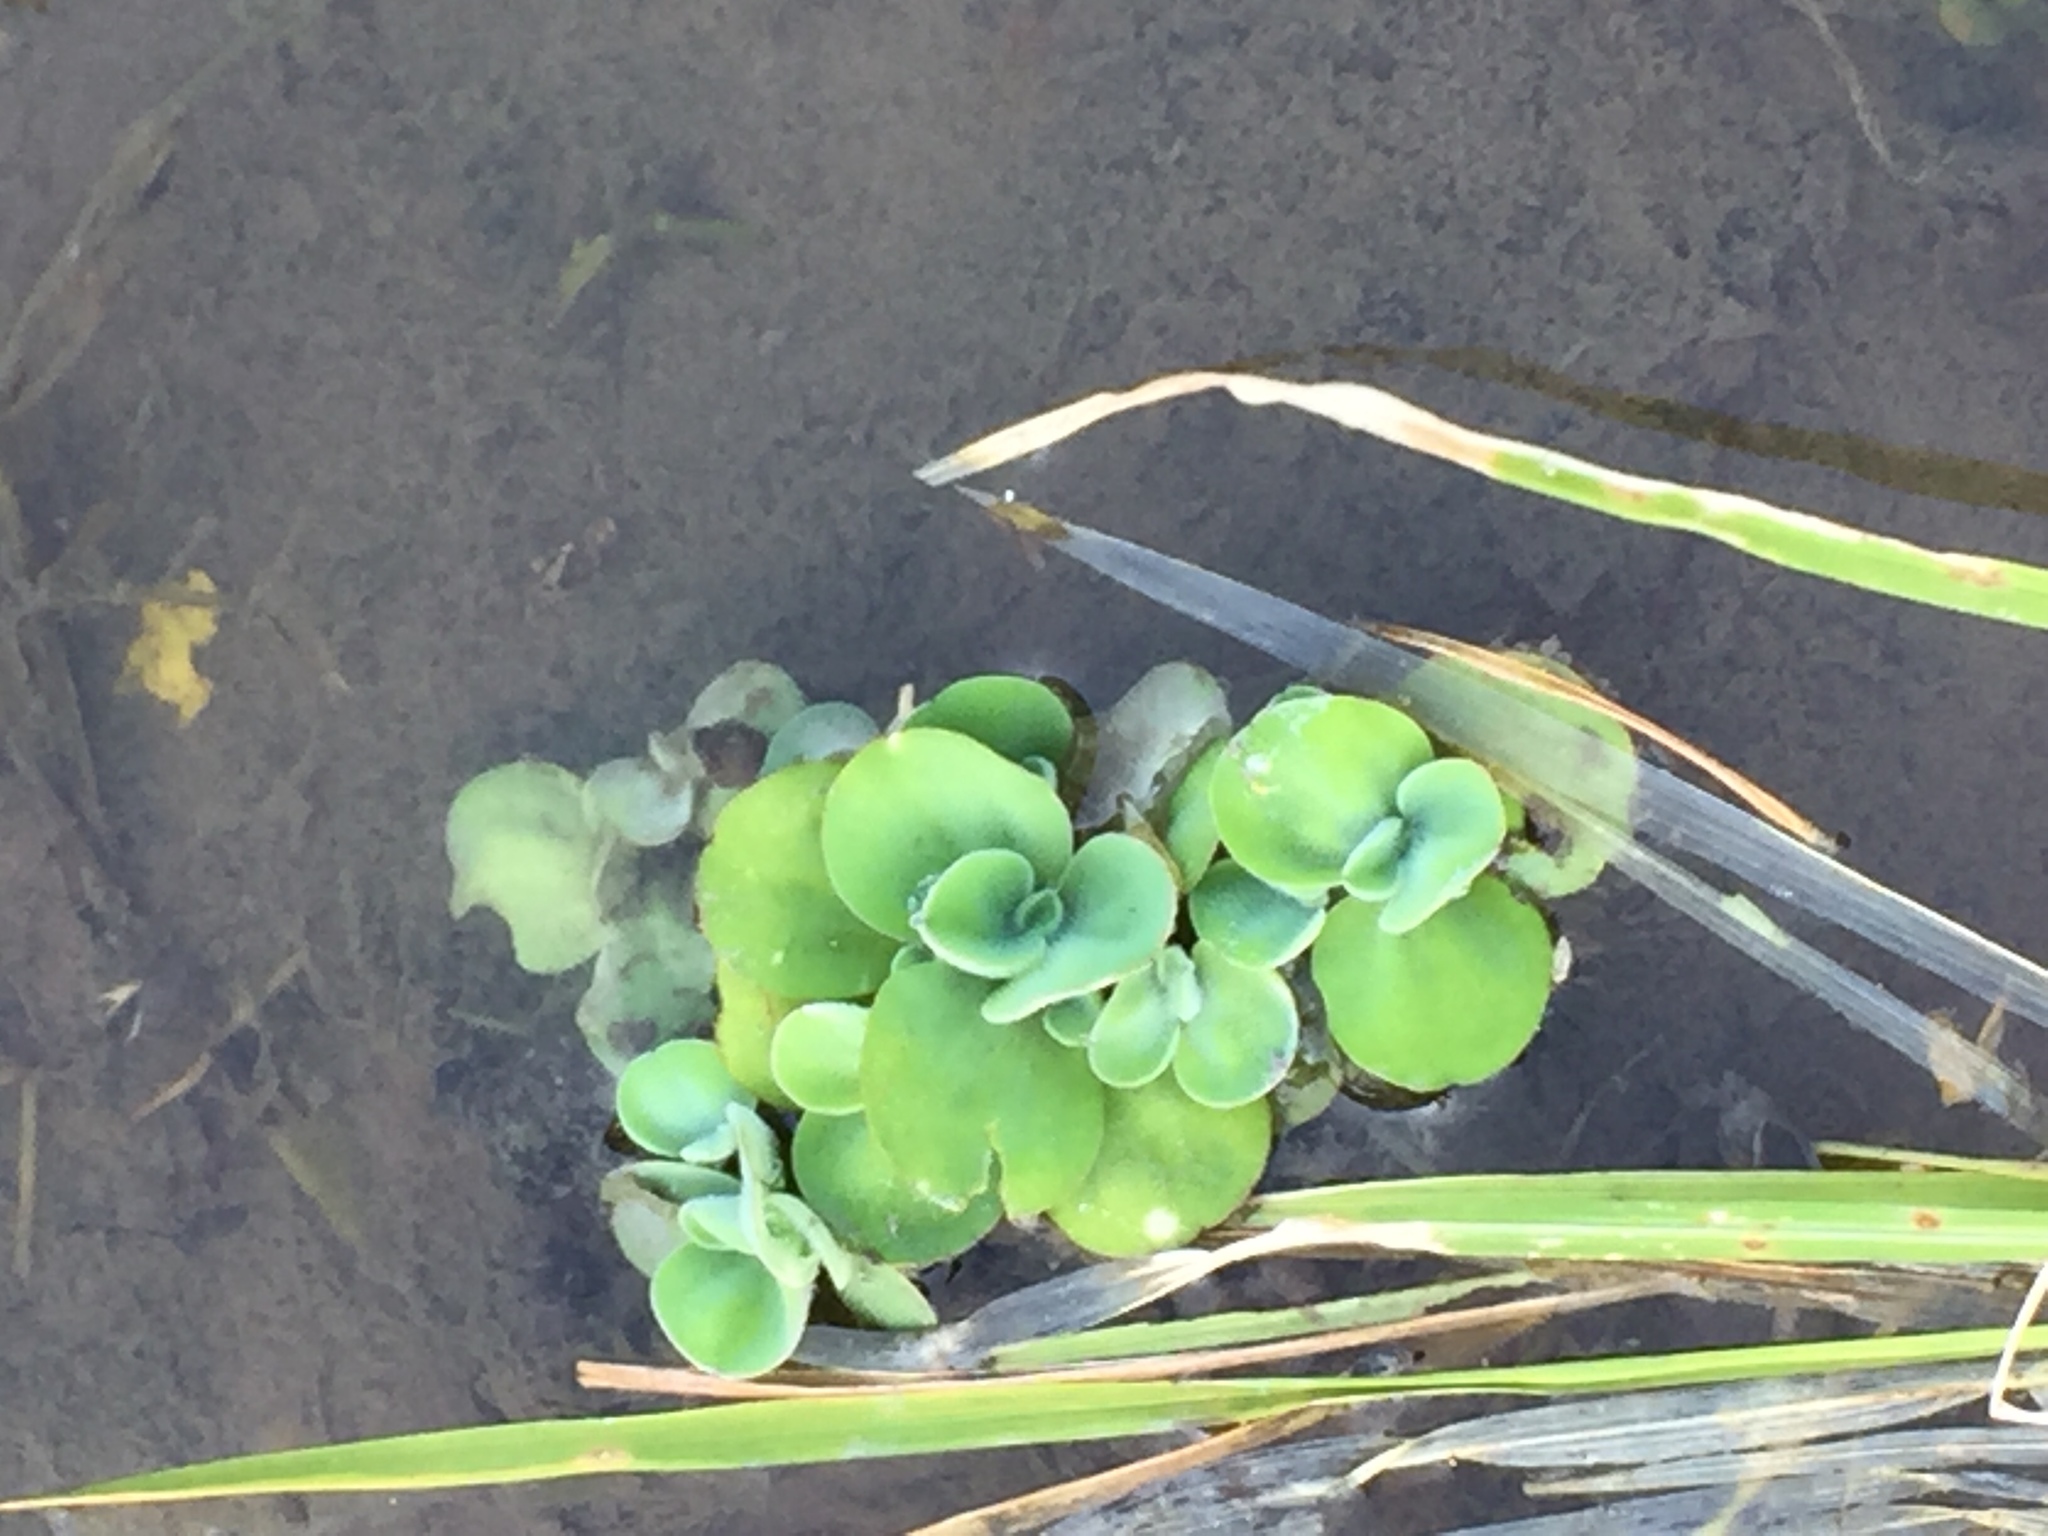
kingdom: Plantae
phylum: Tracheophyta
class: Liliopsida
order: Alismatales
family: Araceae
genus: Pistia
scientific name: Pistia stratiotes
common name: Water lettuce
